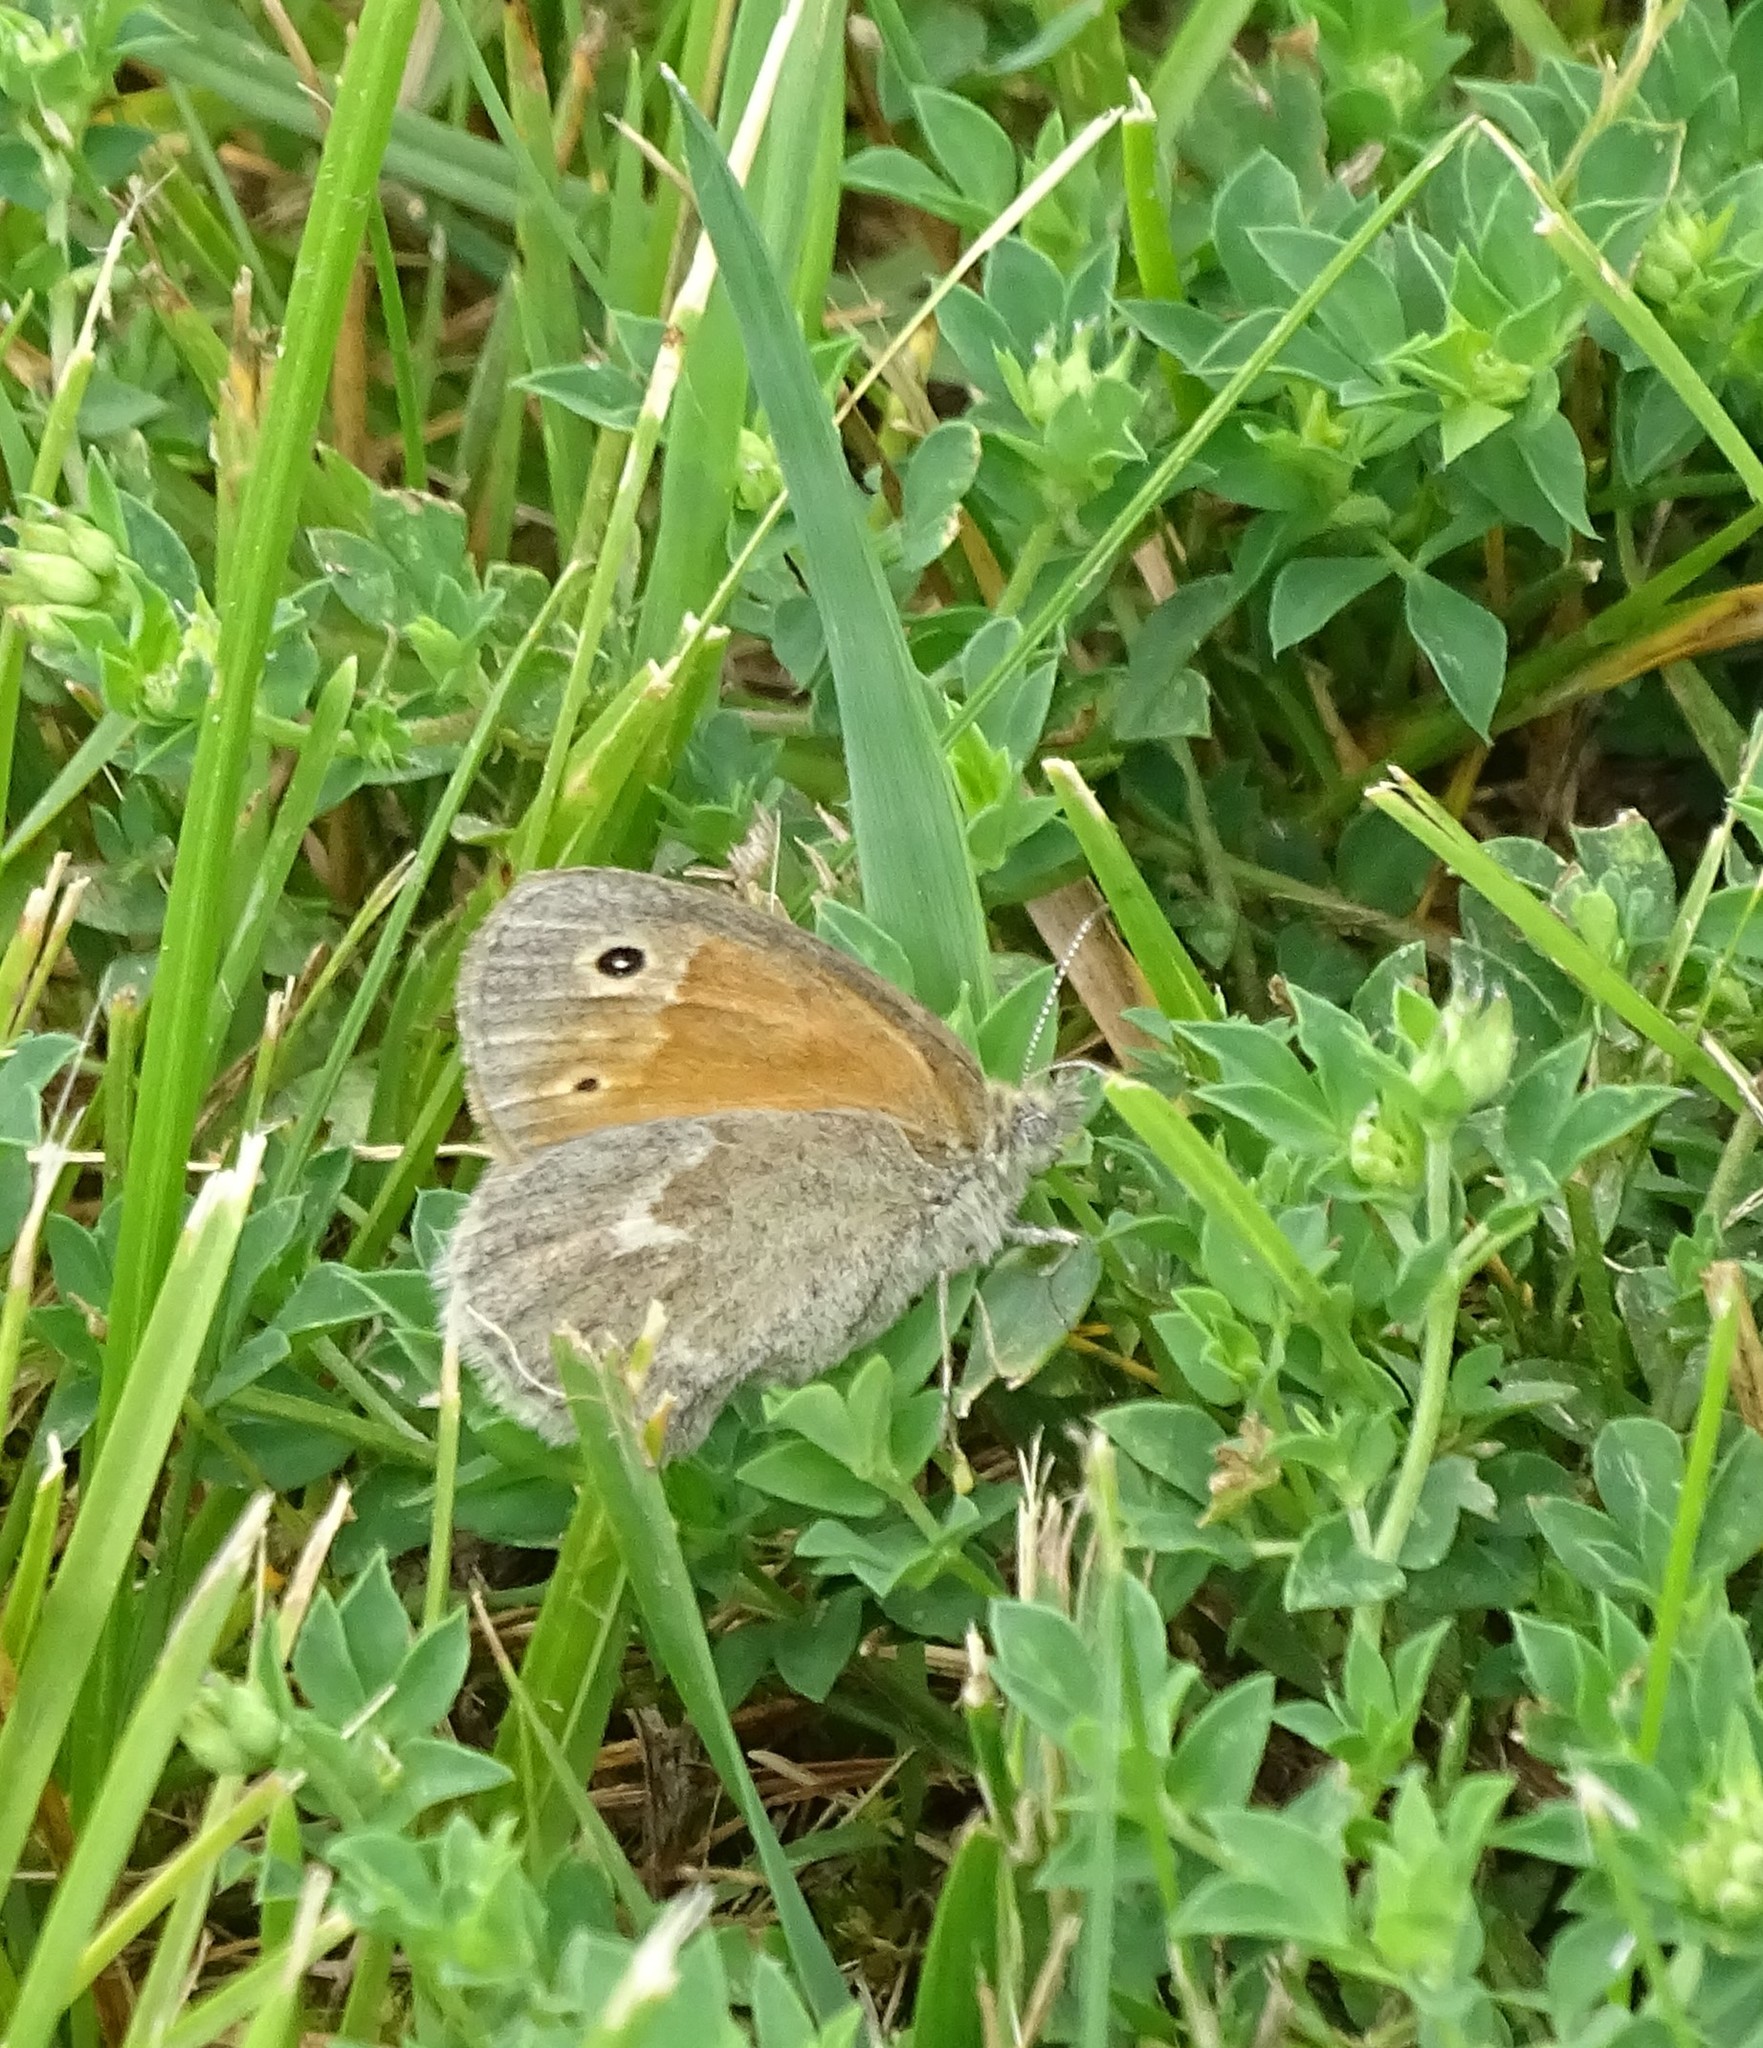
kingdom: Animalia
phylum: Arthropoda
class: Insecta
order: Lepidoptera
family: Nymphalidae
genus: Coenonympha
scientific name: Coenonympha california
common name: Common ringlet
